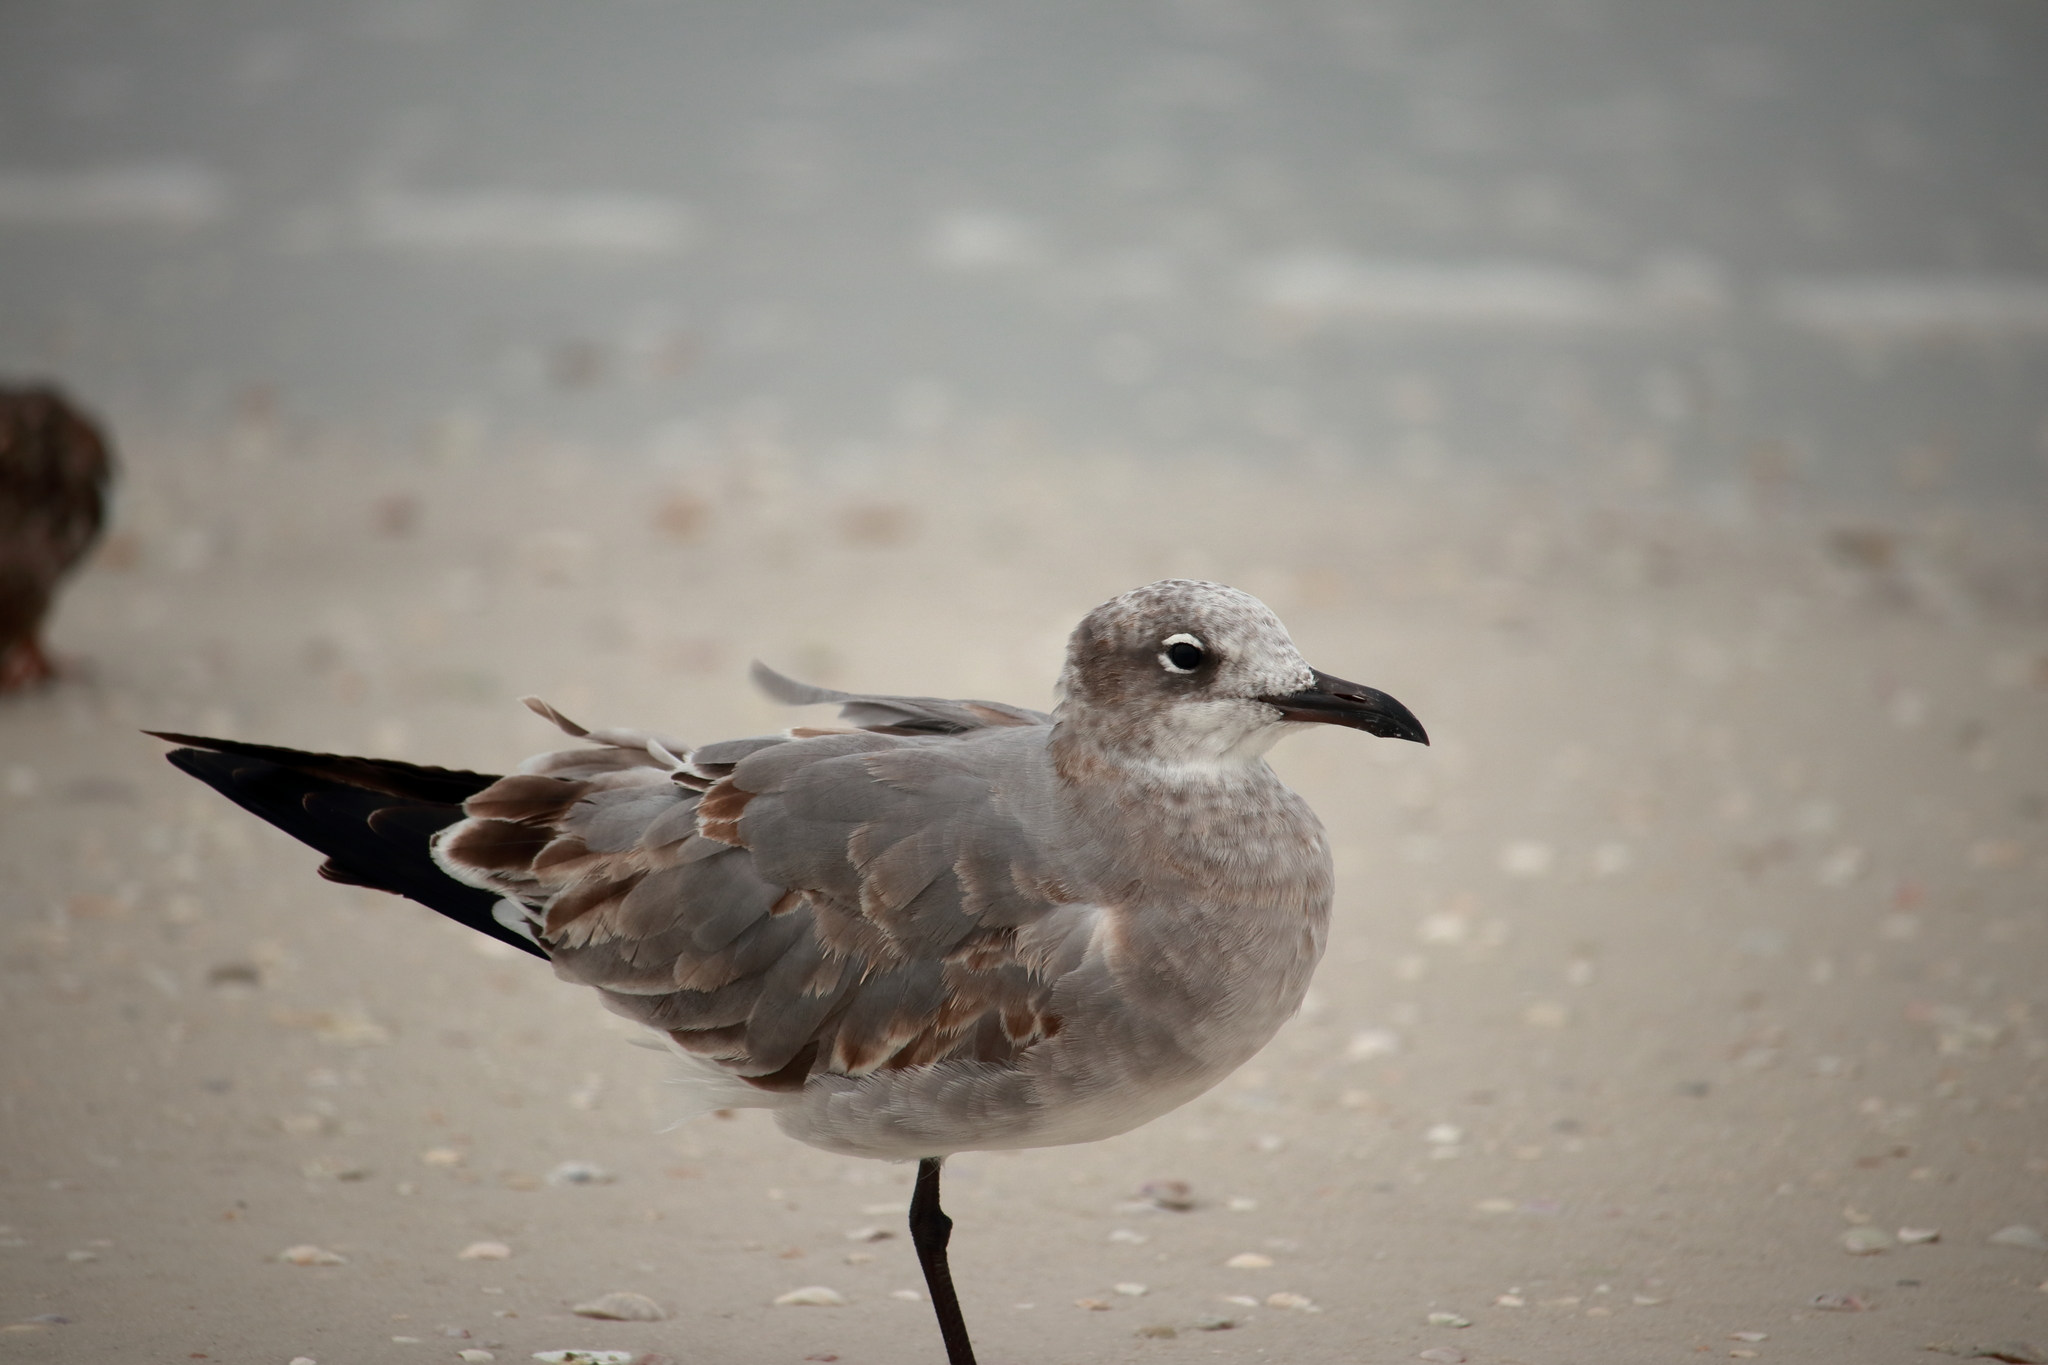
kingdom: Animalia
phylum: Chordata
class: Aves
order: Charadriiformes
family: Laridae
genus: Leucophaeus
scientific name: Leucophaeus atricilla
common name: Laughing gull
